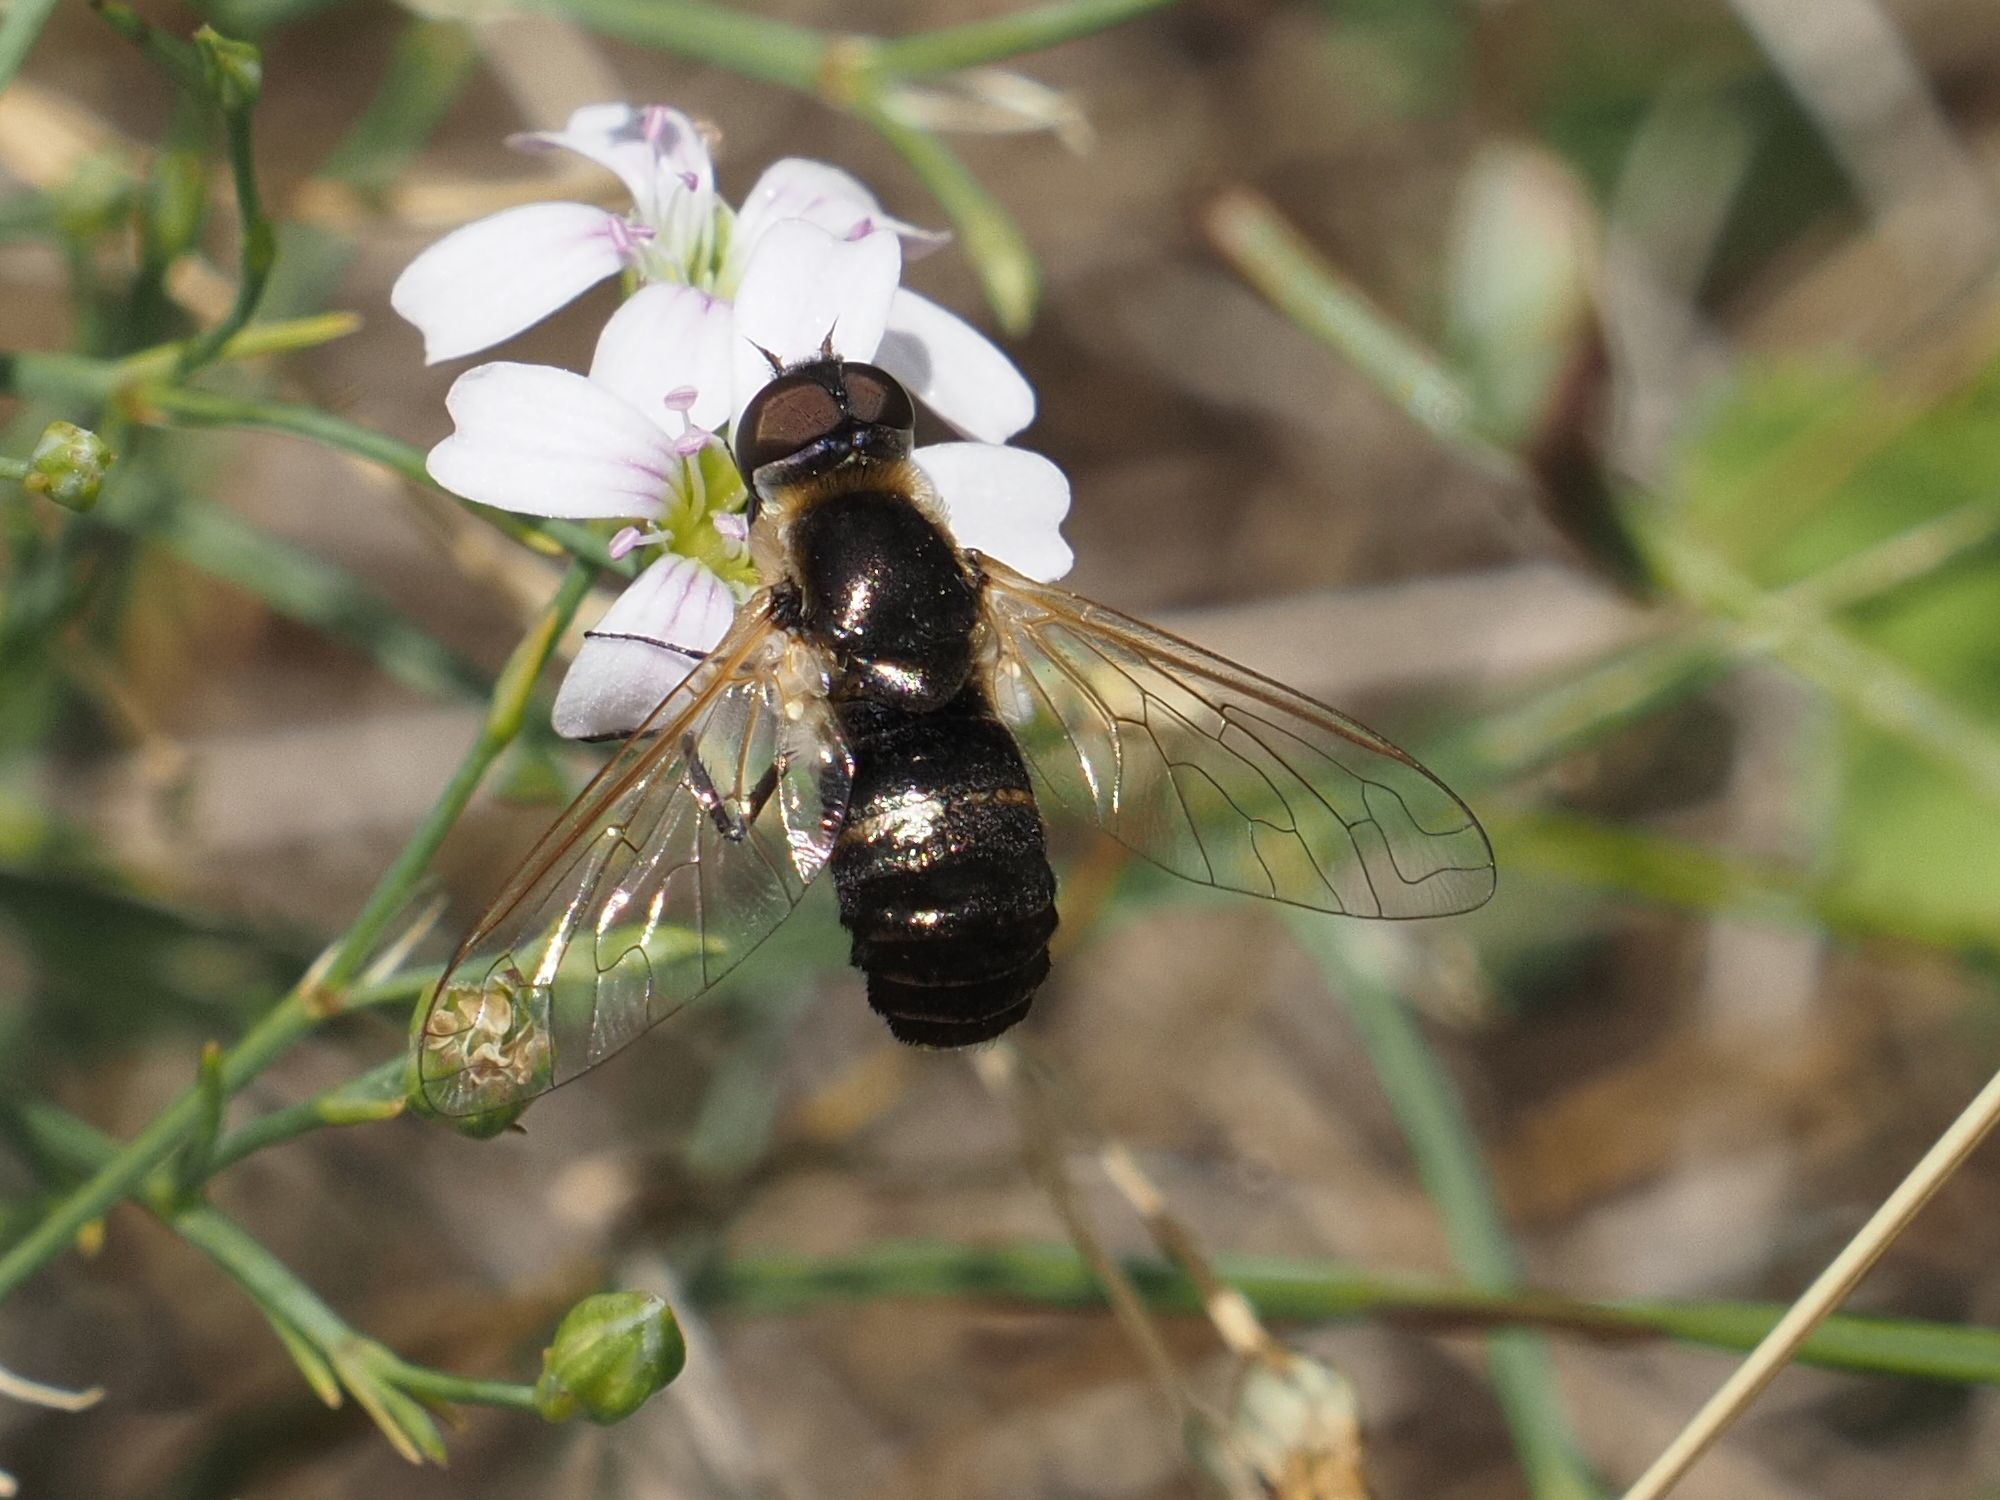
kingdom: Animalia
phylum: Arthropoda
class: Insecta
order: Diptera
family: Bombyliidae
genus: Micomitra
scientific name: Micomitra stupida
